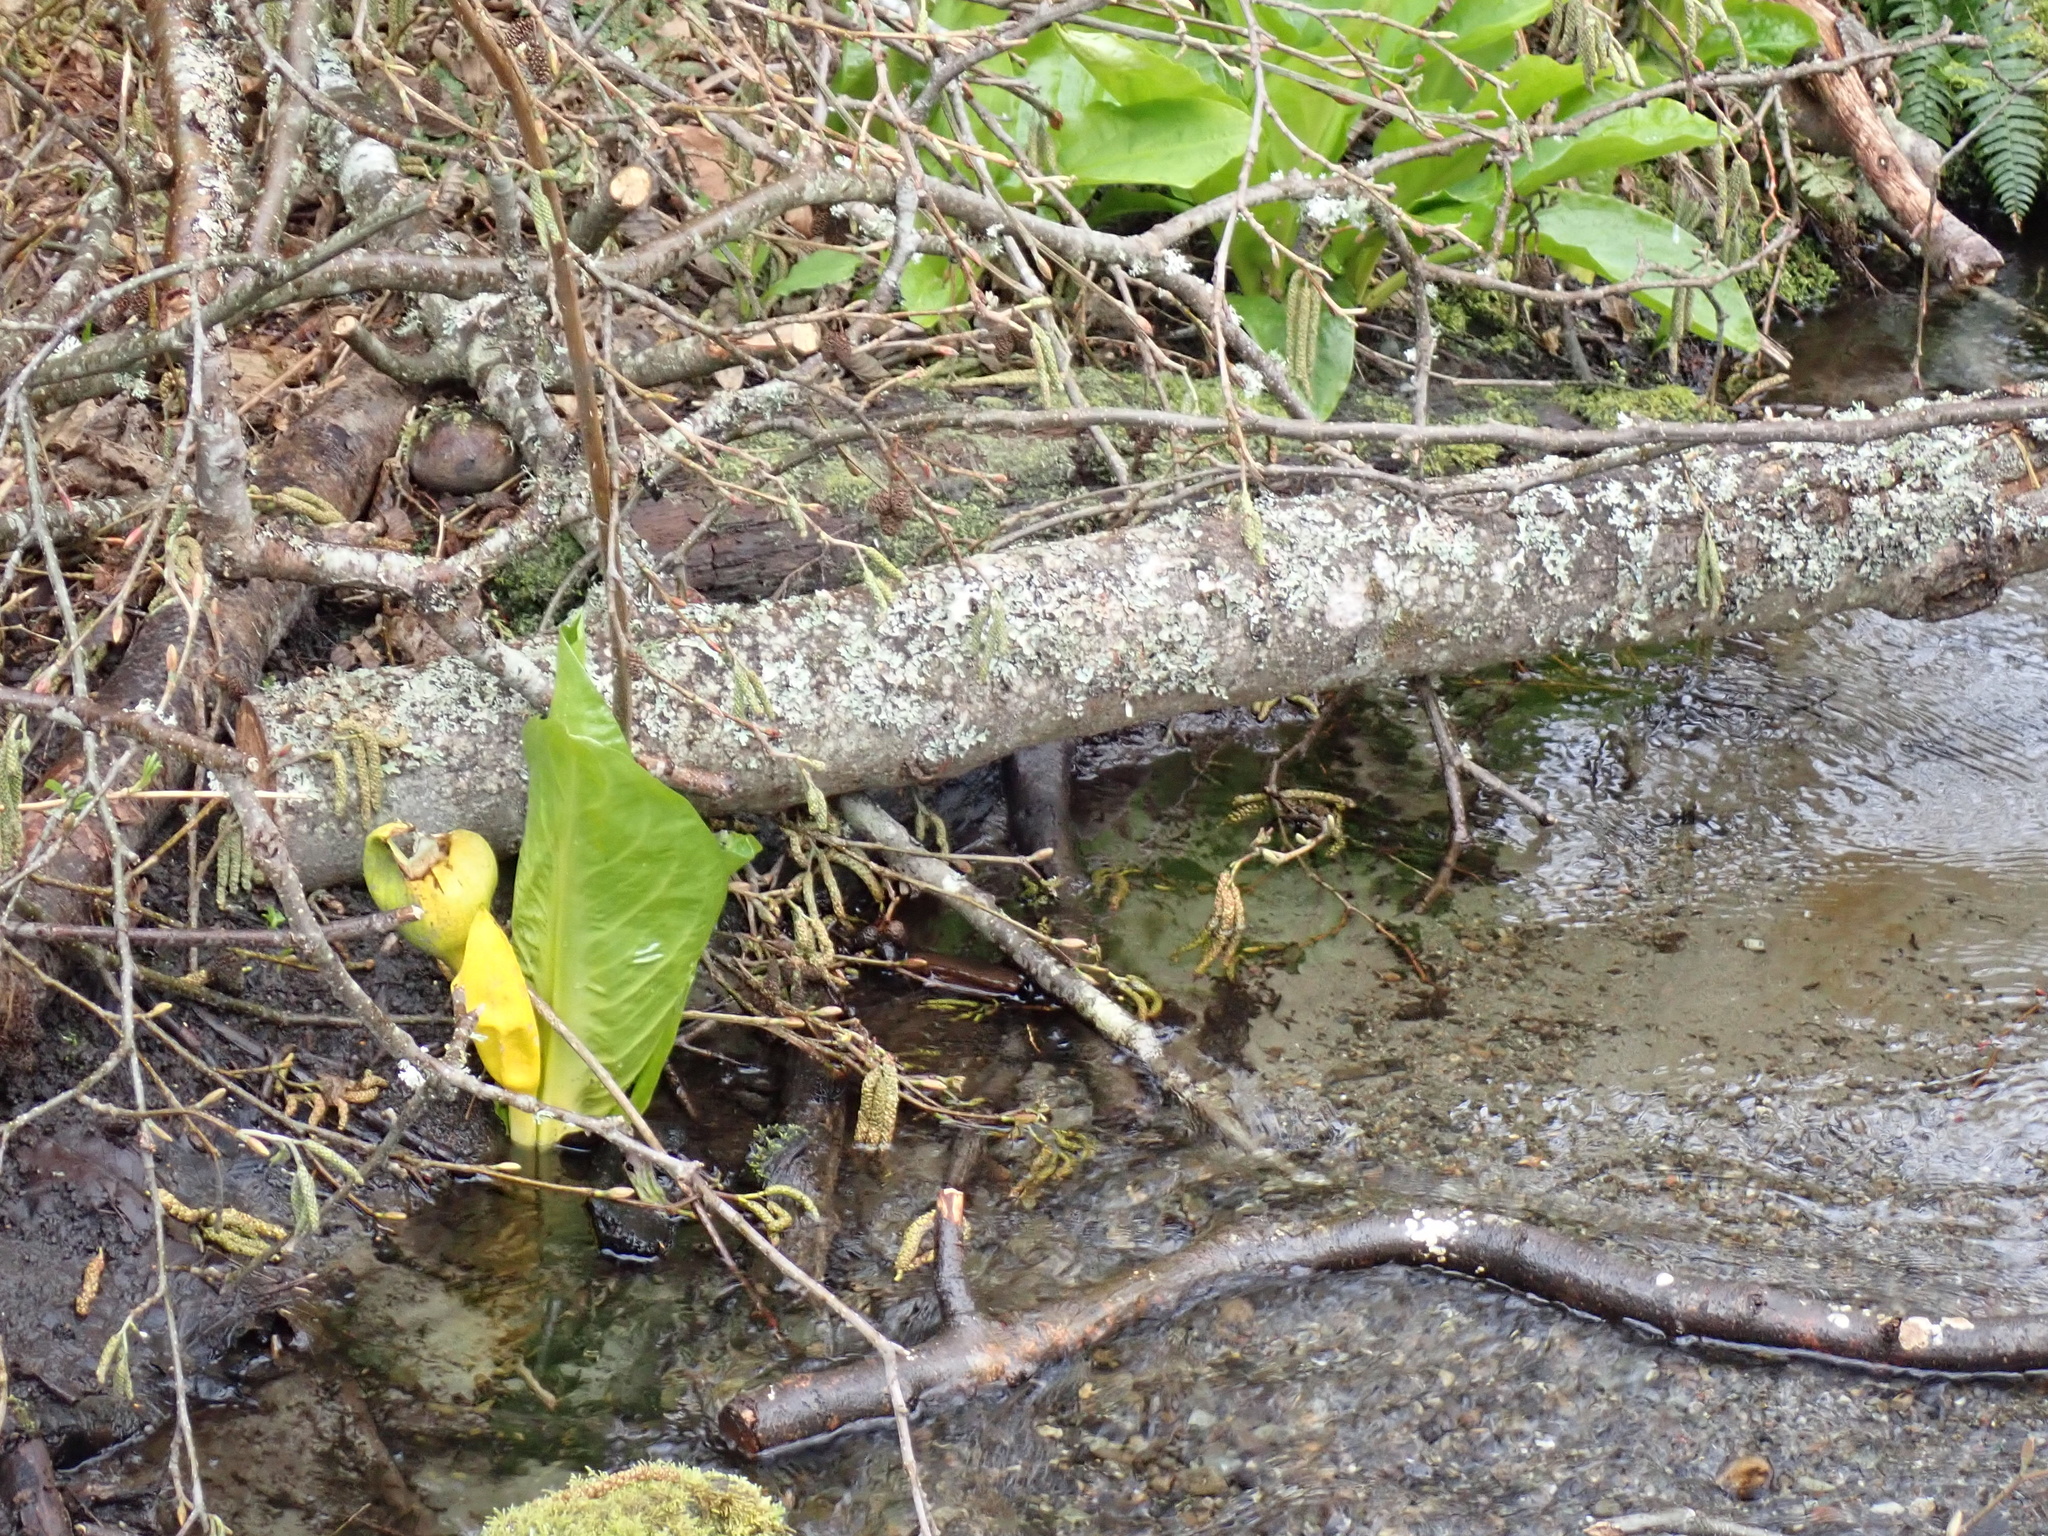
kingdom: Plantae
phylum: Tracheophyta
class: Liliopsida
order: Alismatales
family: Araceae
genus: Lysichiton
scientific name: Lysichiton americanus
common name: American skunk cabbage
